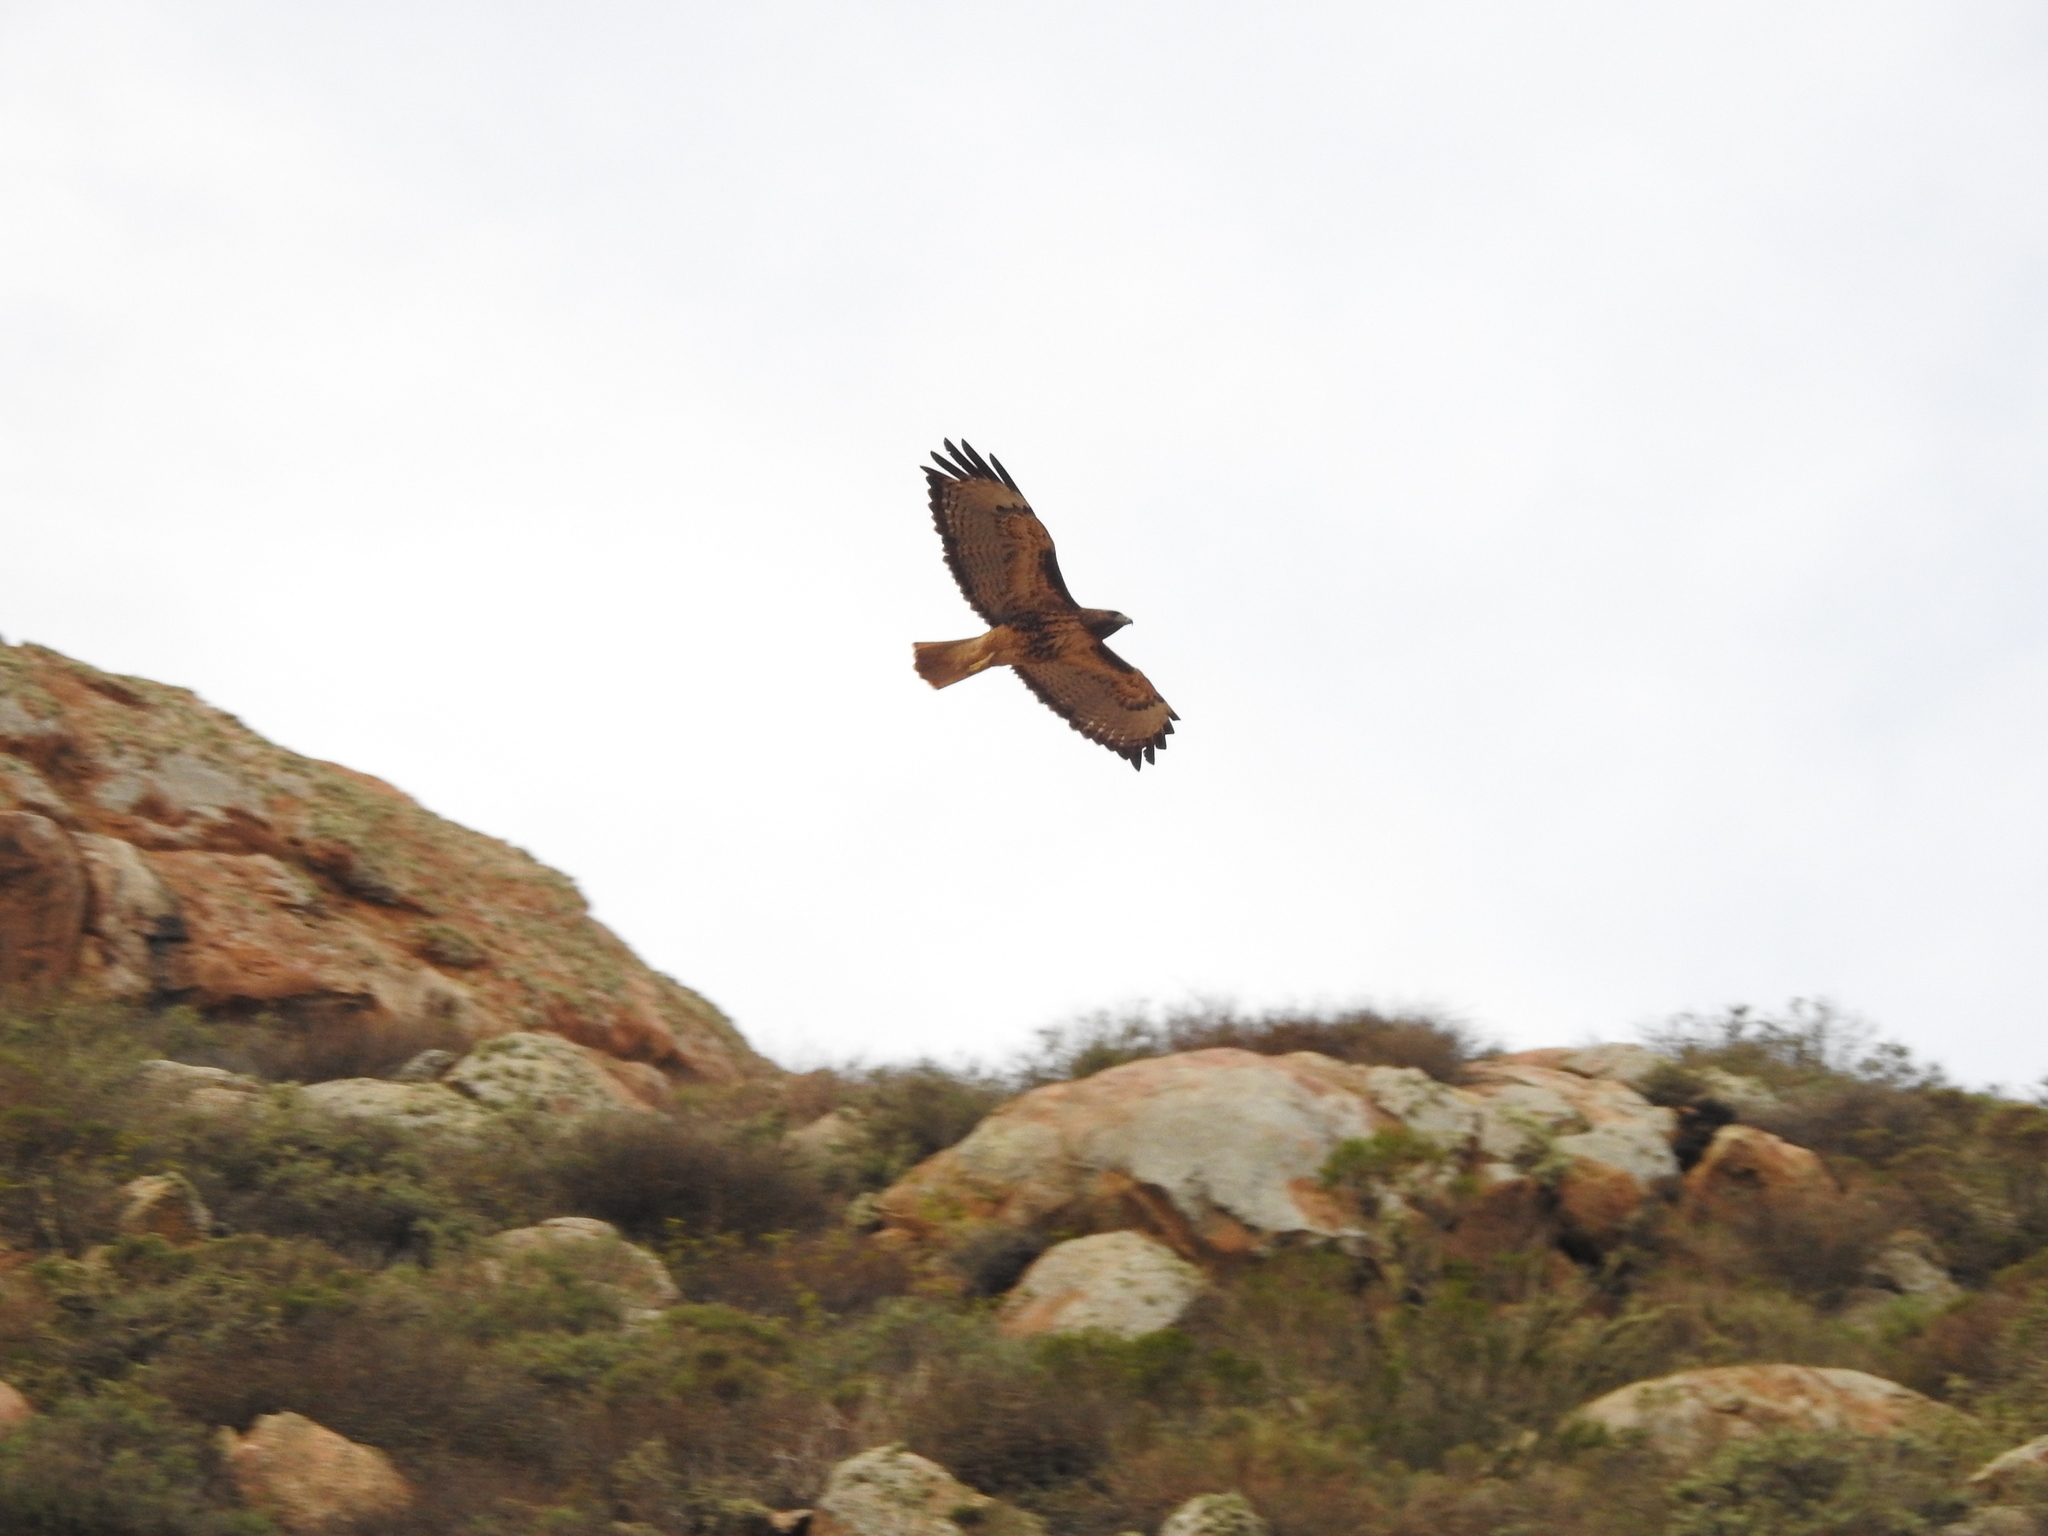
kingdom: Animalia
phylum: Chordata
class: Aves
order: Accipitriformes
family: Accipitridae
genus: Buteo
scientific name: Buteo jamaicensis
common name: Red-tailed hawk
